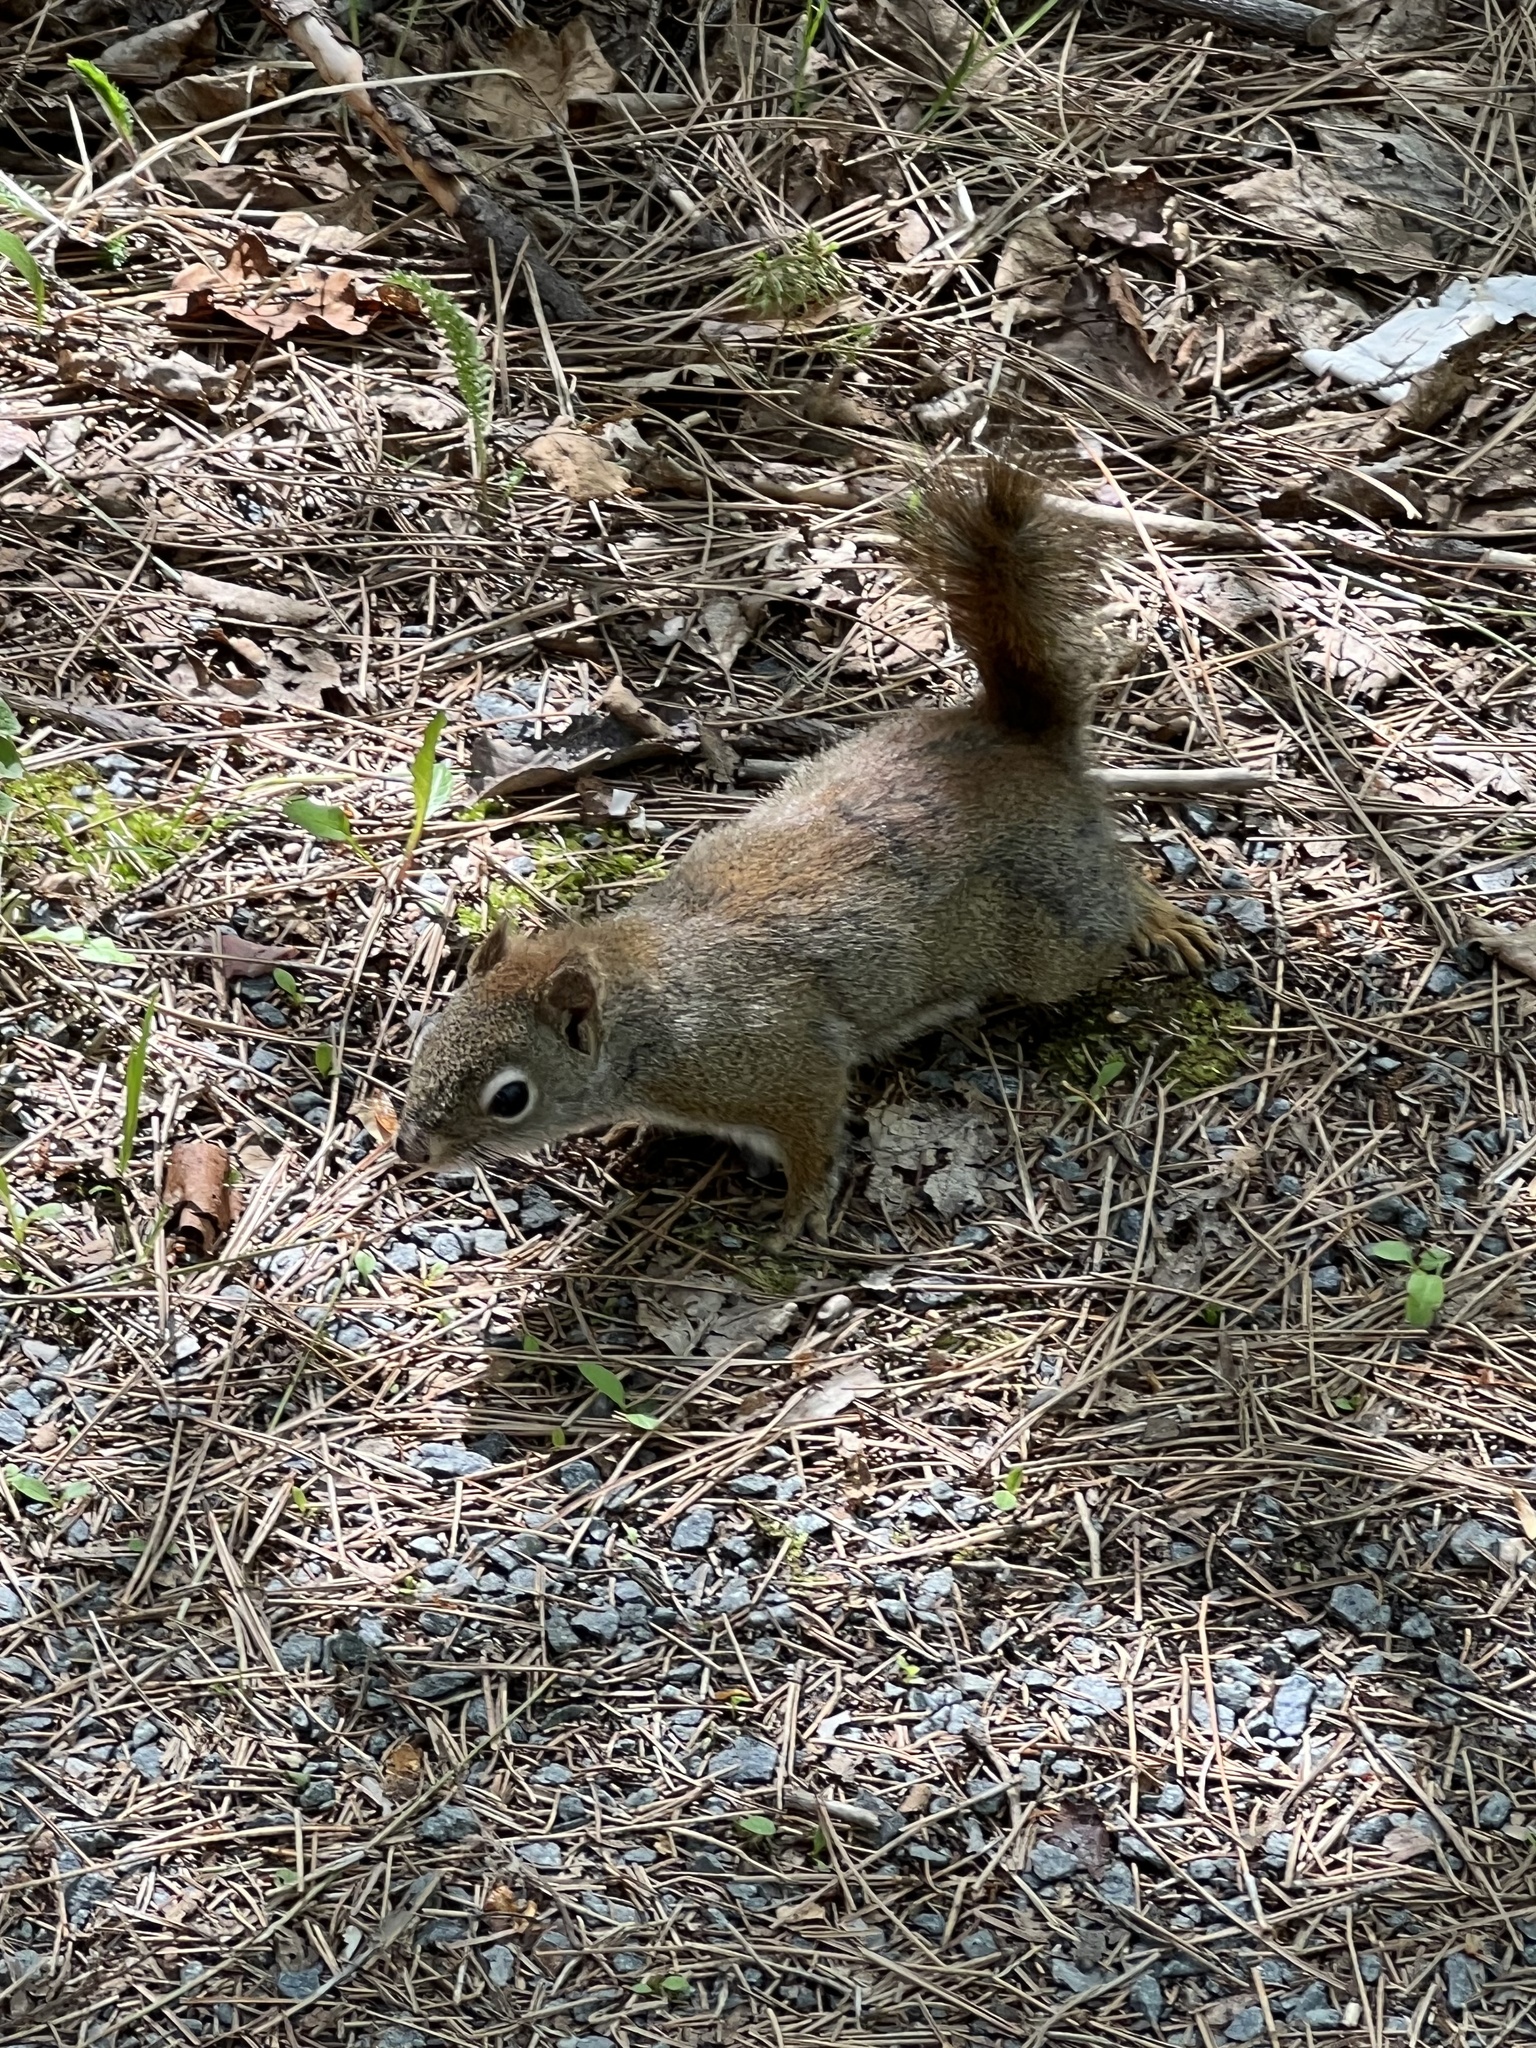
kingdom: Animalia
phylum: Chordata
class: Mammalia
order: Rodentia
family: Sciuridae
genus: Tamiasciurus
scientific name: Tamiasciurus hudsonicus
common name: Red squirrel
